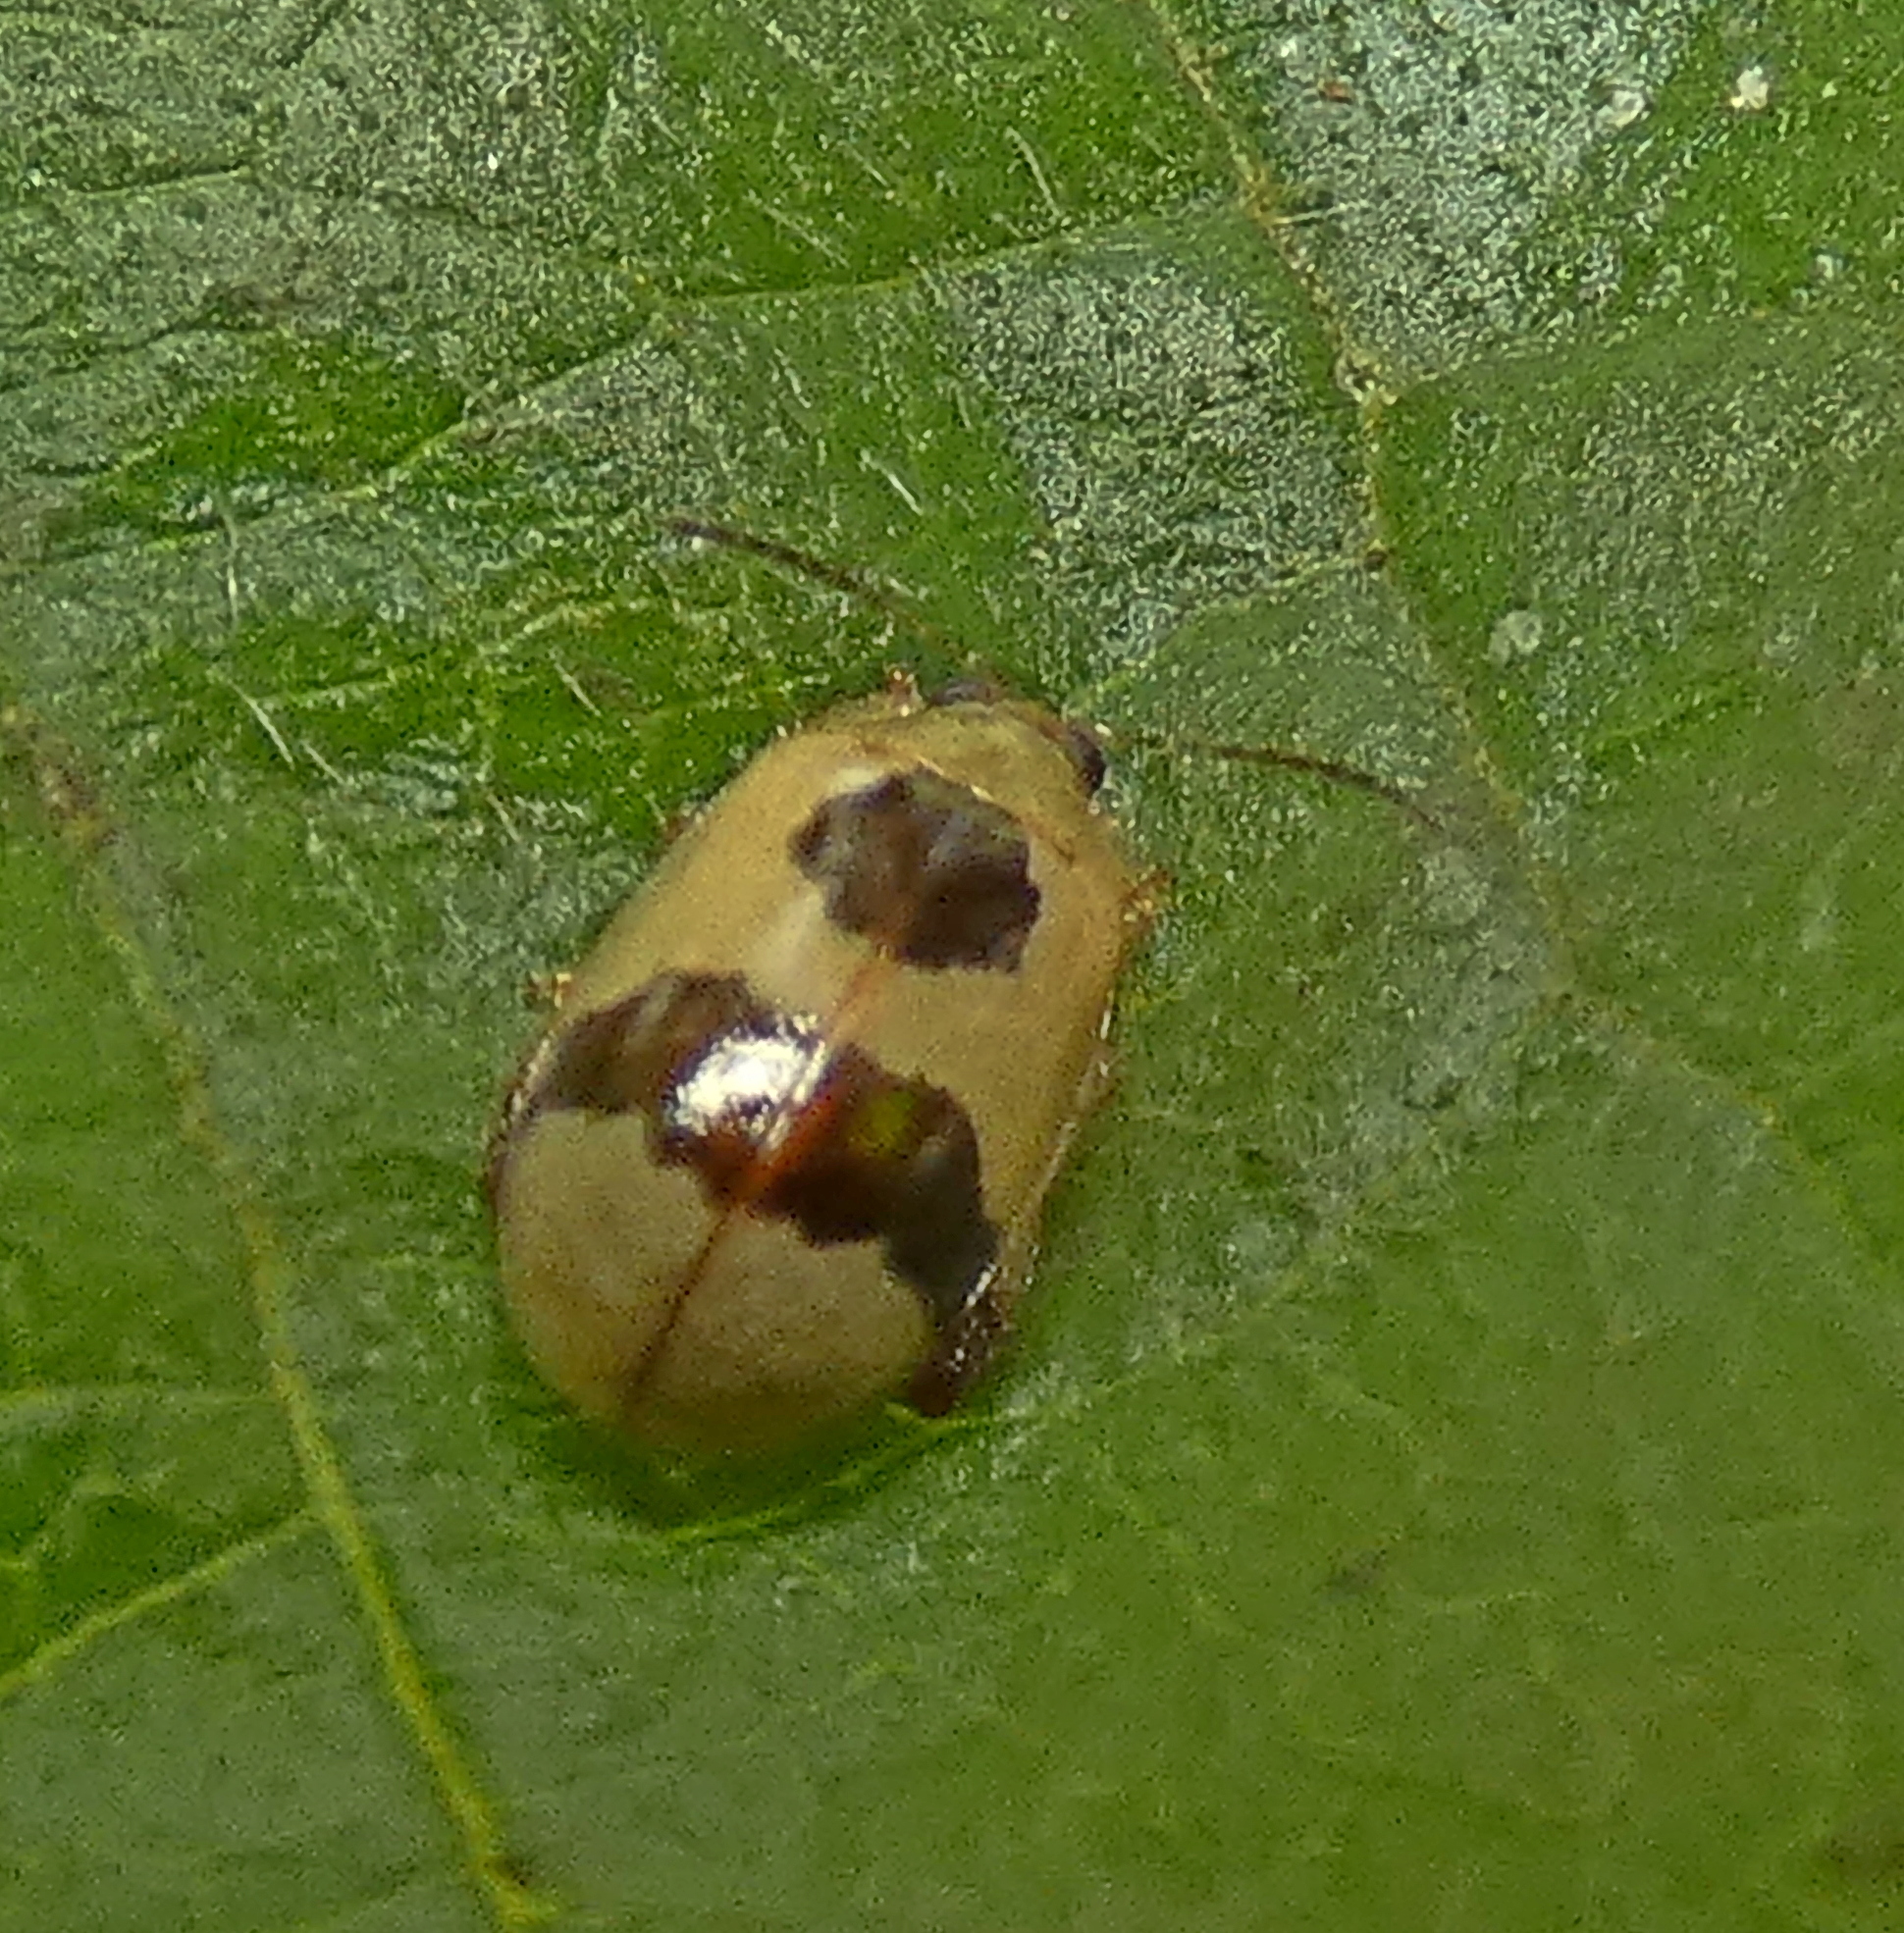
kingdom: Animalia
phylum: Arthropoda
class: Insecta
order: Coleoptera
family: Chrysomelidae
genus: Alagoasa
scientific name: Alagoasa
